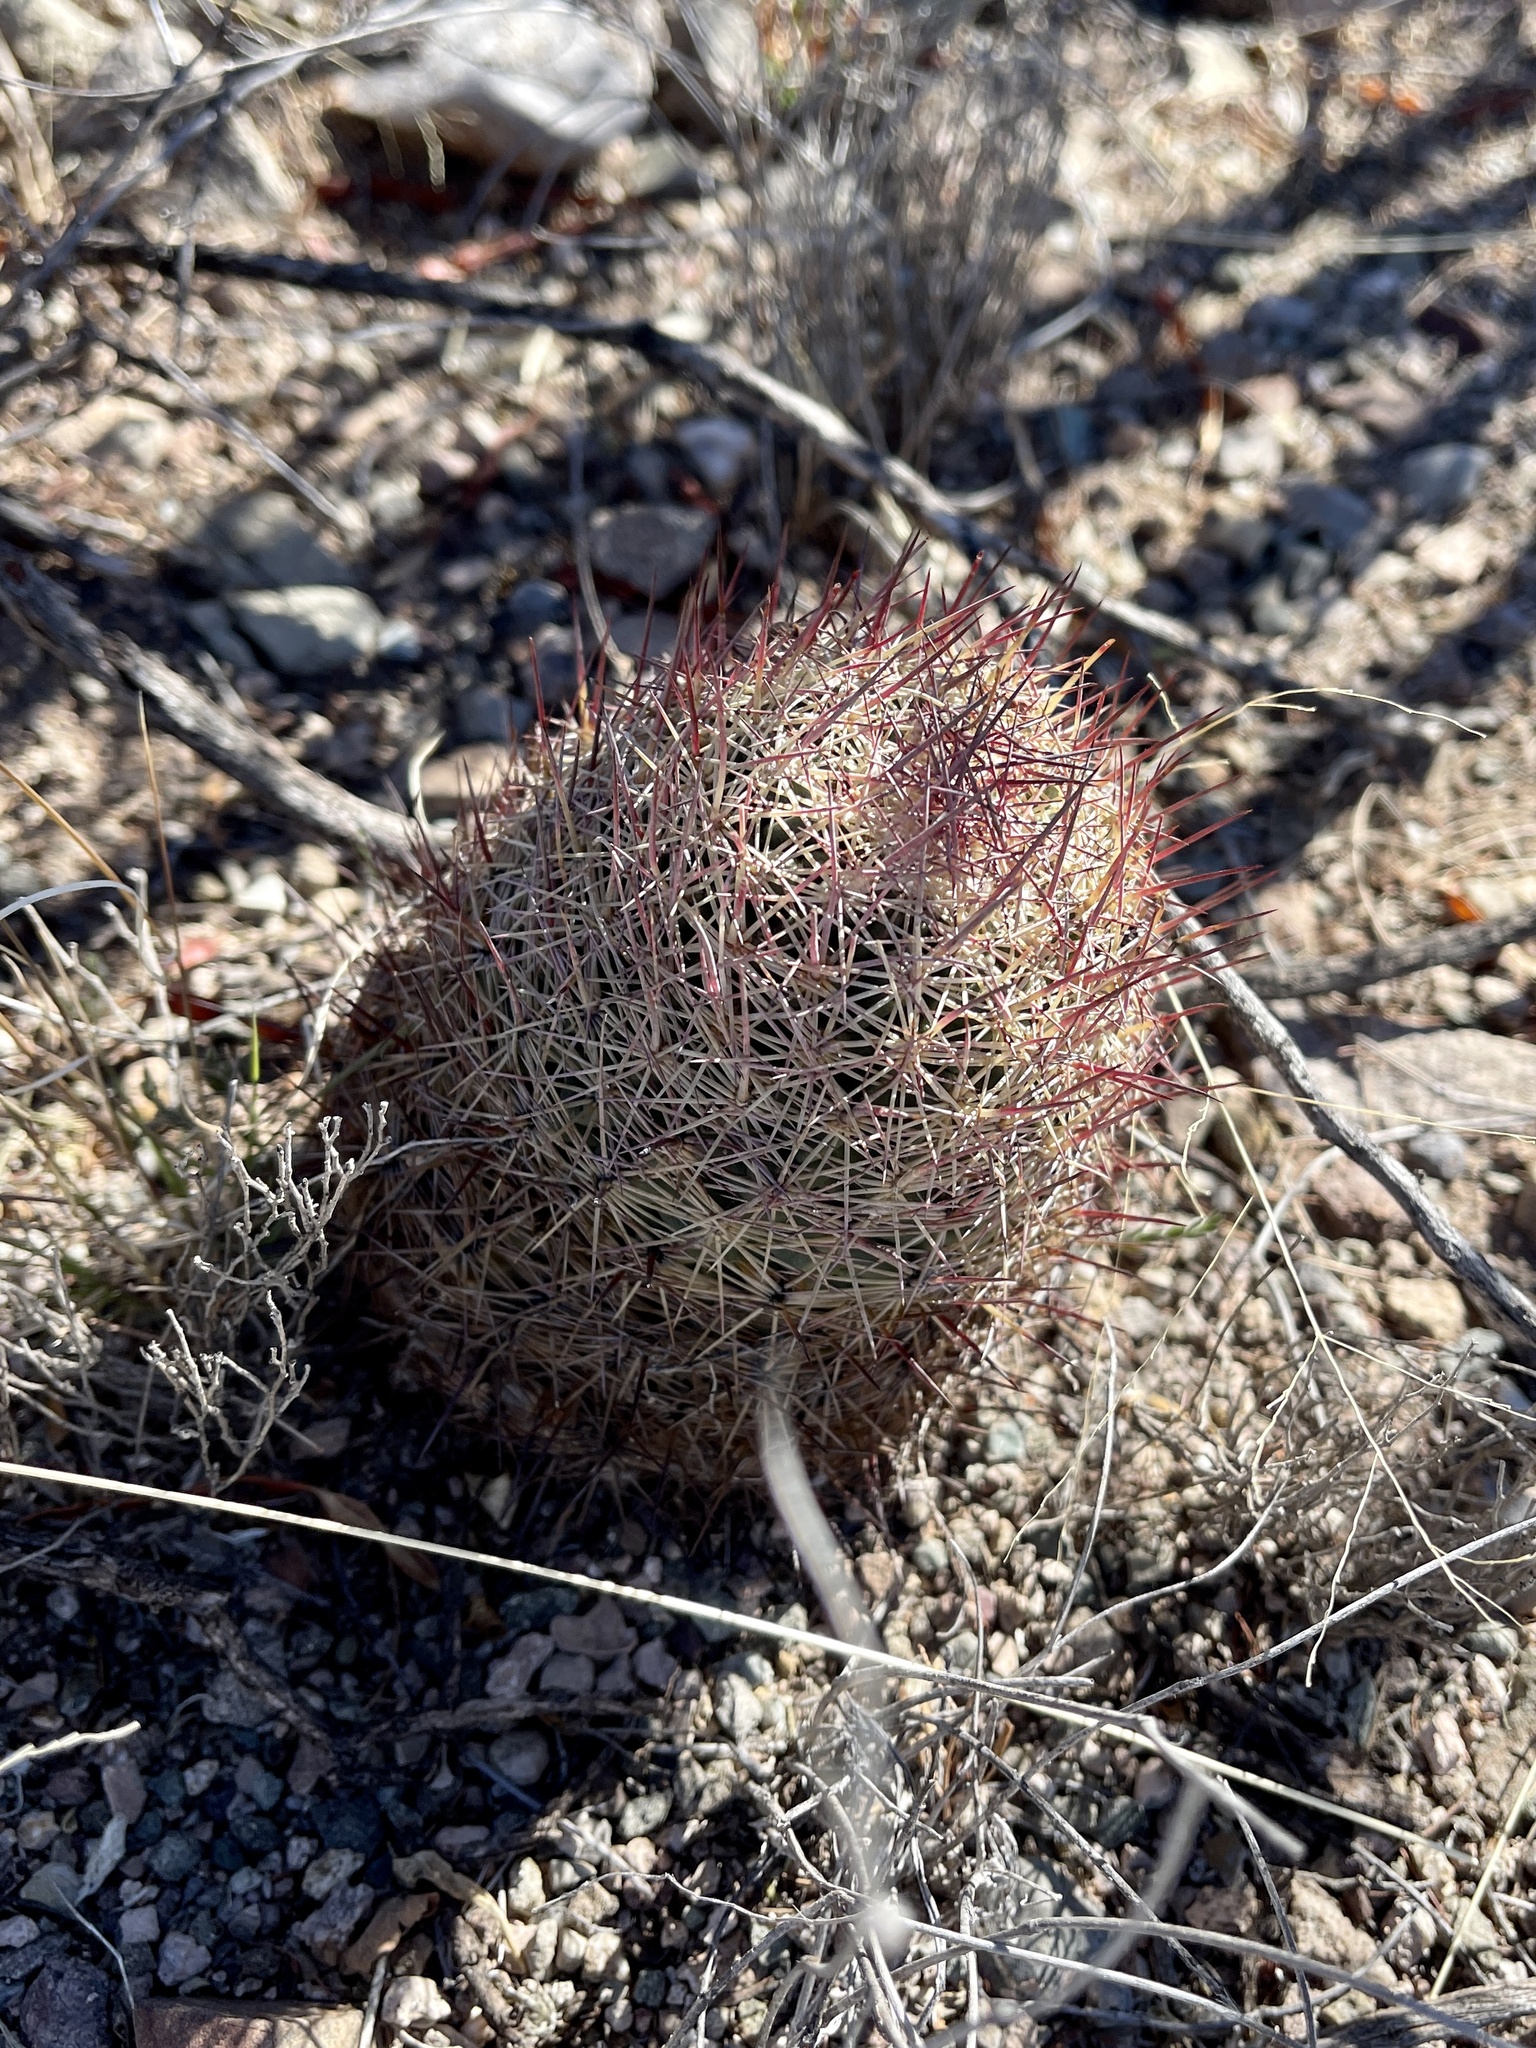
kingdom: Plantae
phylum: Tracheophyta
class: Magnoliopsida
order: Caryophyllales
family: Cactaceae
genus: Sclerocactus
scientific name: Sclerocactus johnsonii
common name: Eight-spine fishhook cactus
